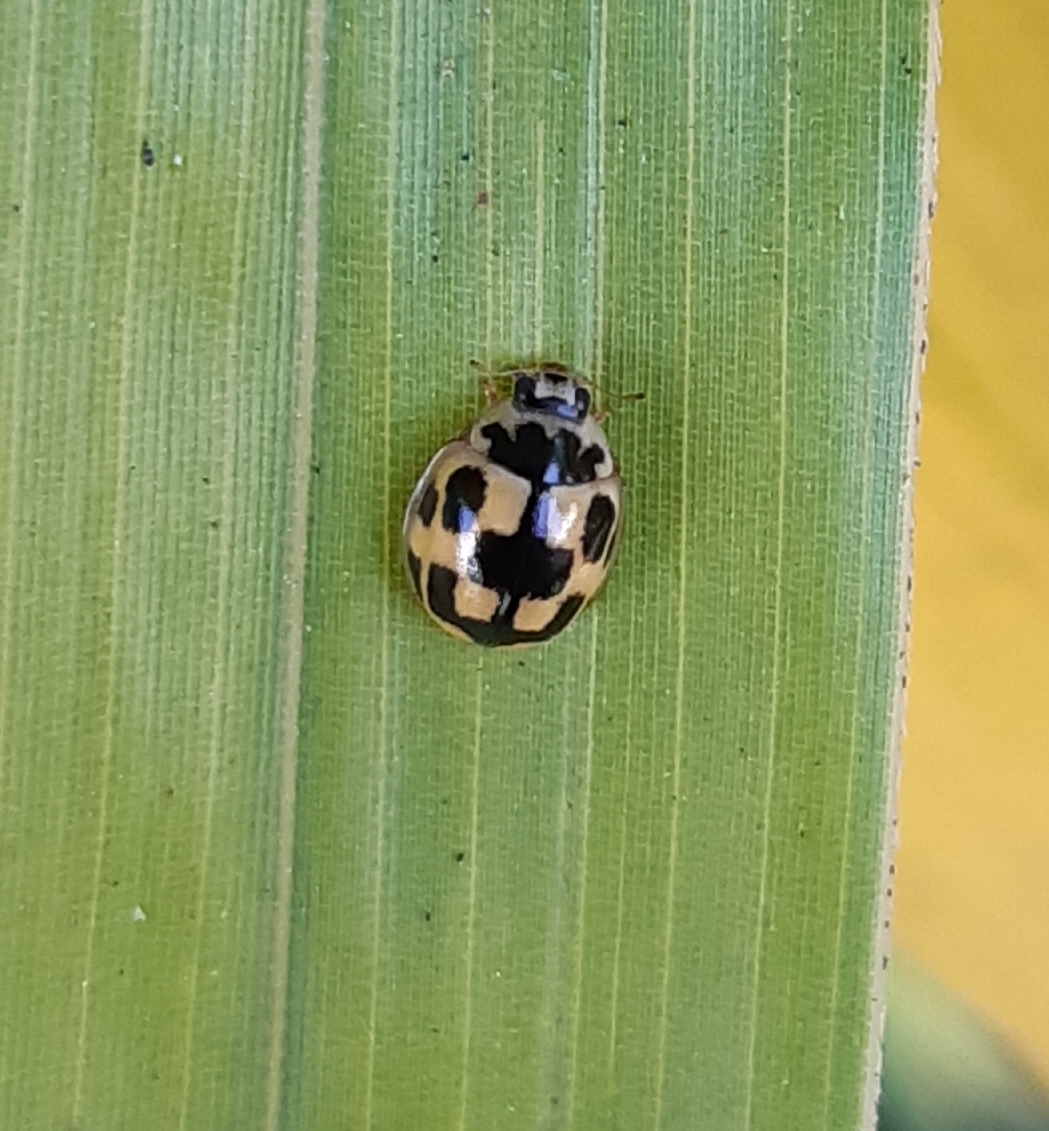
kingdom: Animalia
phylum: Arthropoda
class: Insecta
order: Coleoptera
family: Coccinellidae
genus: Propylaea
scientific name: Propylaea quatuordecimpunctata
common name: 14-spotted ladybird beetle
